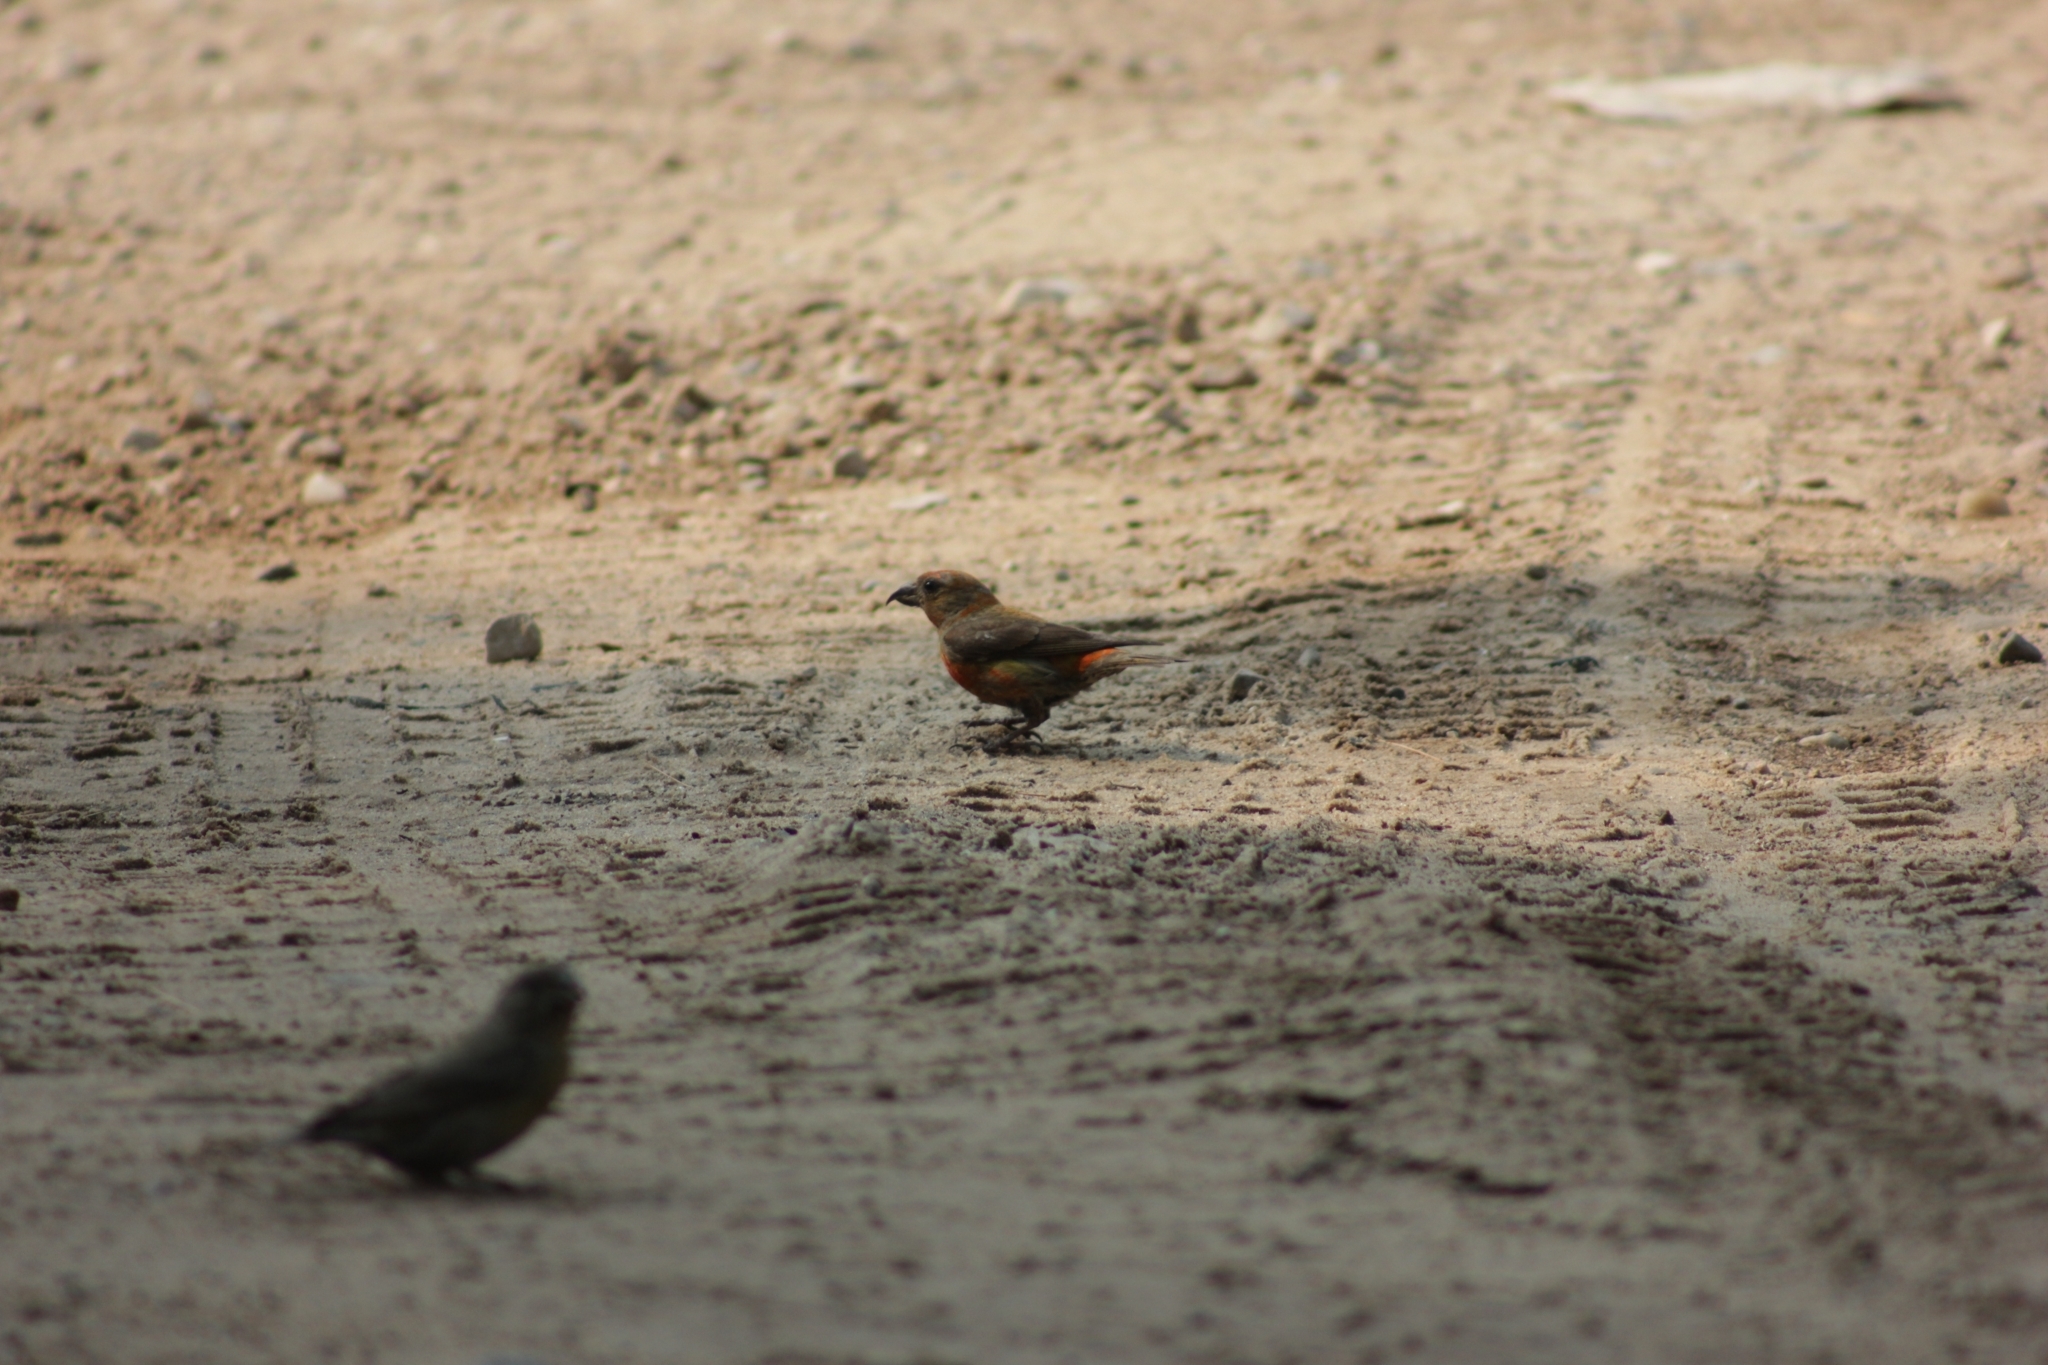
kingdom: Animalia
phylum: Chordata
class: Aves
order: Passeriformes
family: Fringillidae
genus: Loxia
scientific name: Loxia curvirostra
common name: Red crossbill
